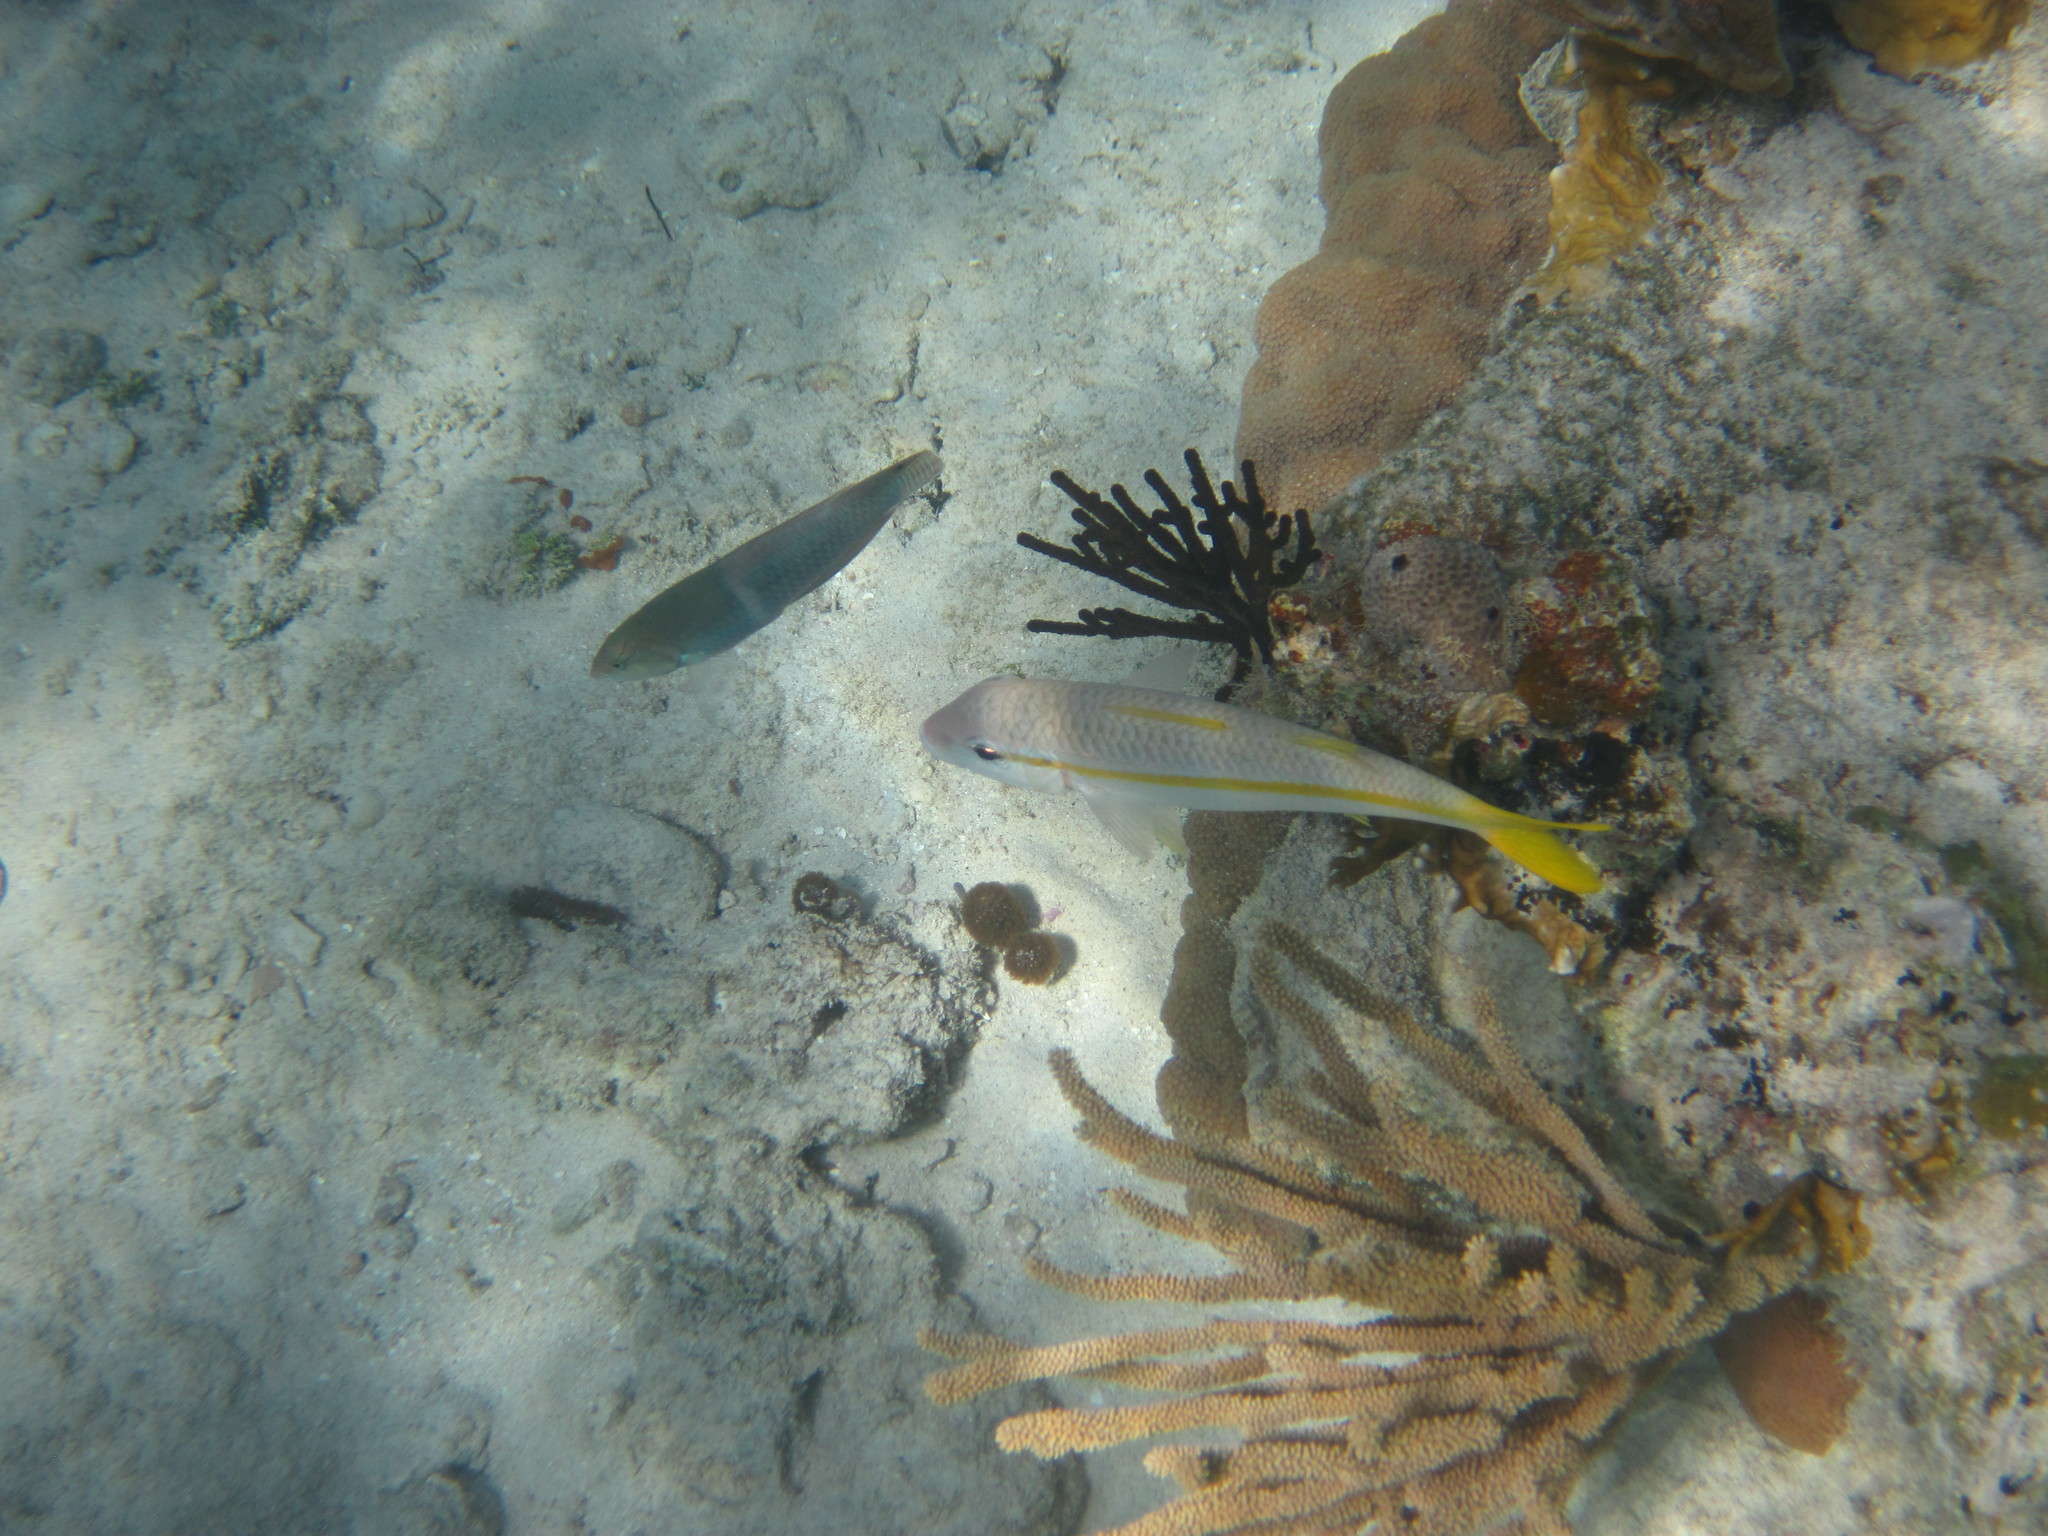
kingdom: Animalia
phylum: Chordata
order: Perciformes
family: Mullidae
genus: Mulloidichthys
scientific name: Mulloidichthys martinicus
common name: Yellow goatfish
